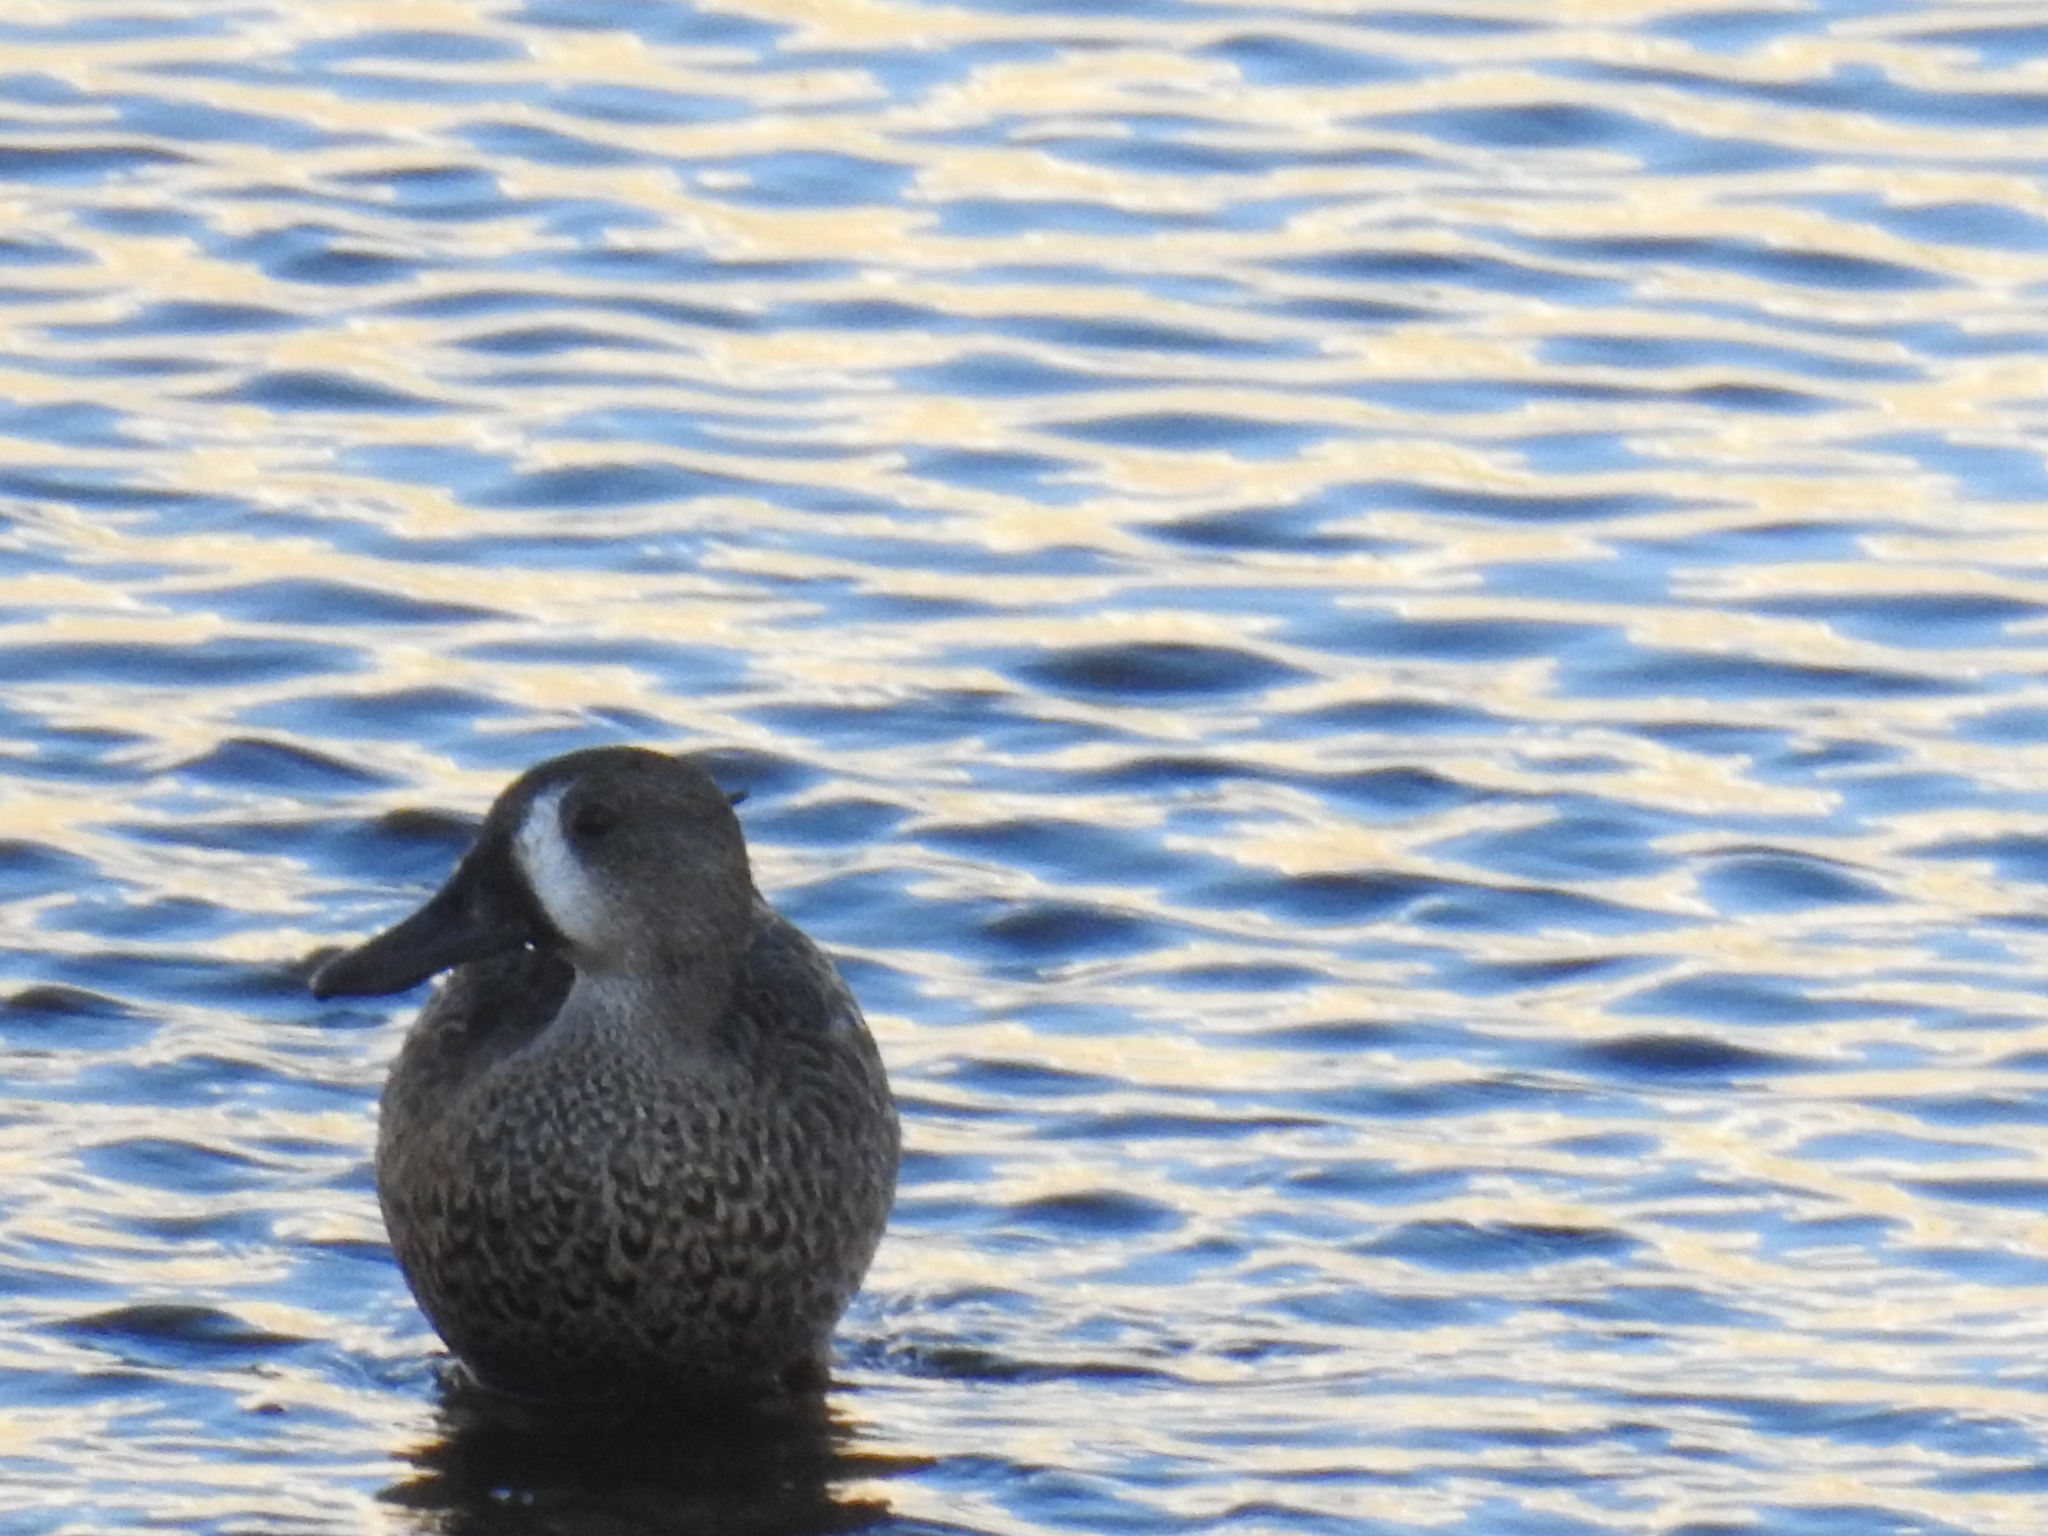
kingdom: Animalia
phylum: Chordata
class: Aves
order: Anseriformes
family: Anatidae
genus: Spatula
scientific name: Spatula discors
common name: Blue-winged teal
